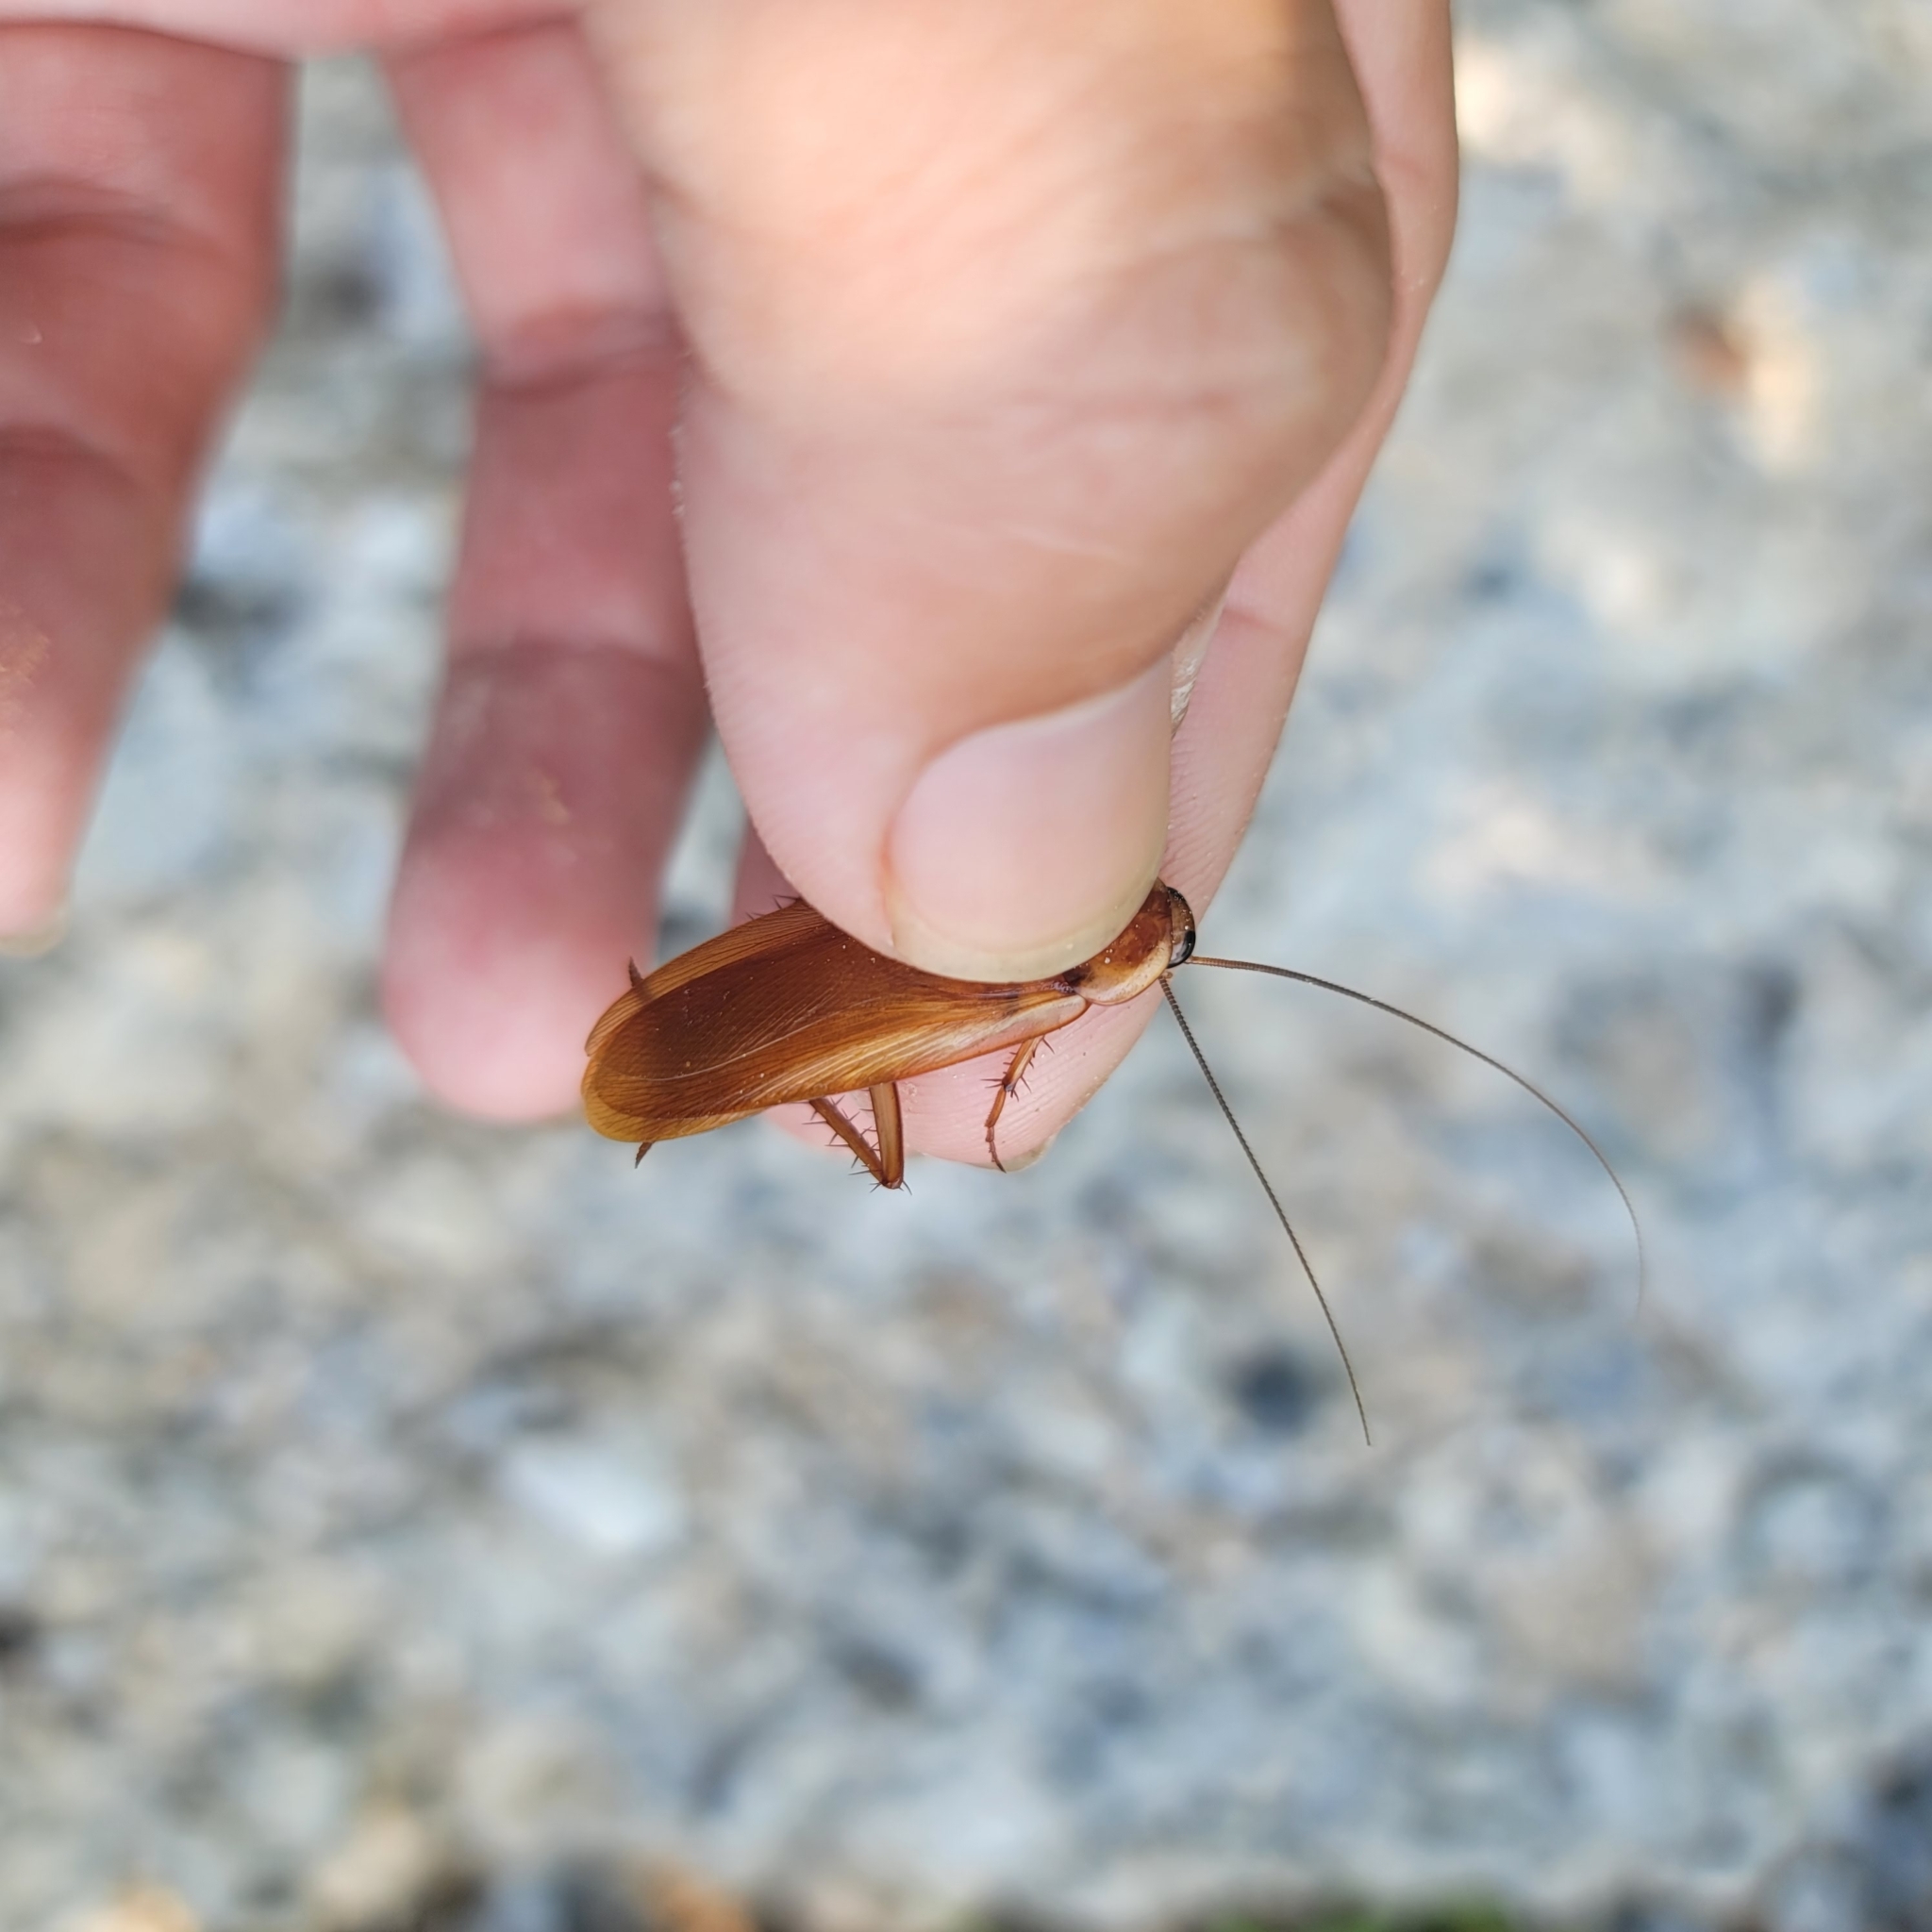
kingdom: Animalia
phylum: Arthropoda
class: Insecta
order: Blattodea
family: Blattidae
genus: Periplaneta
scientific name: Periplaneta lateralis
